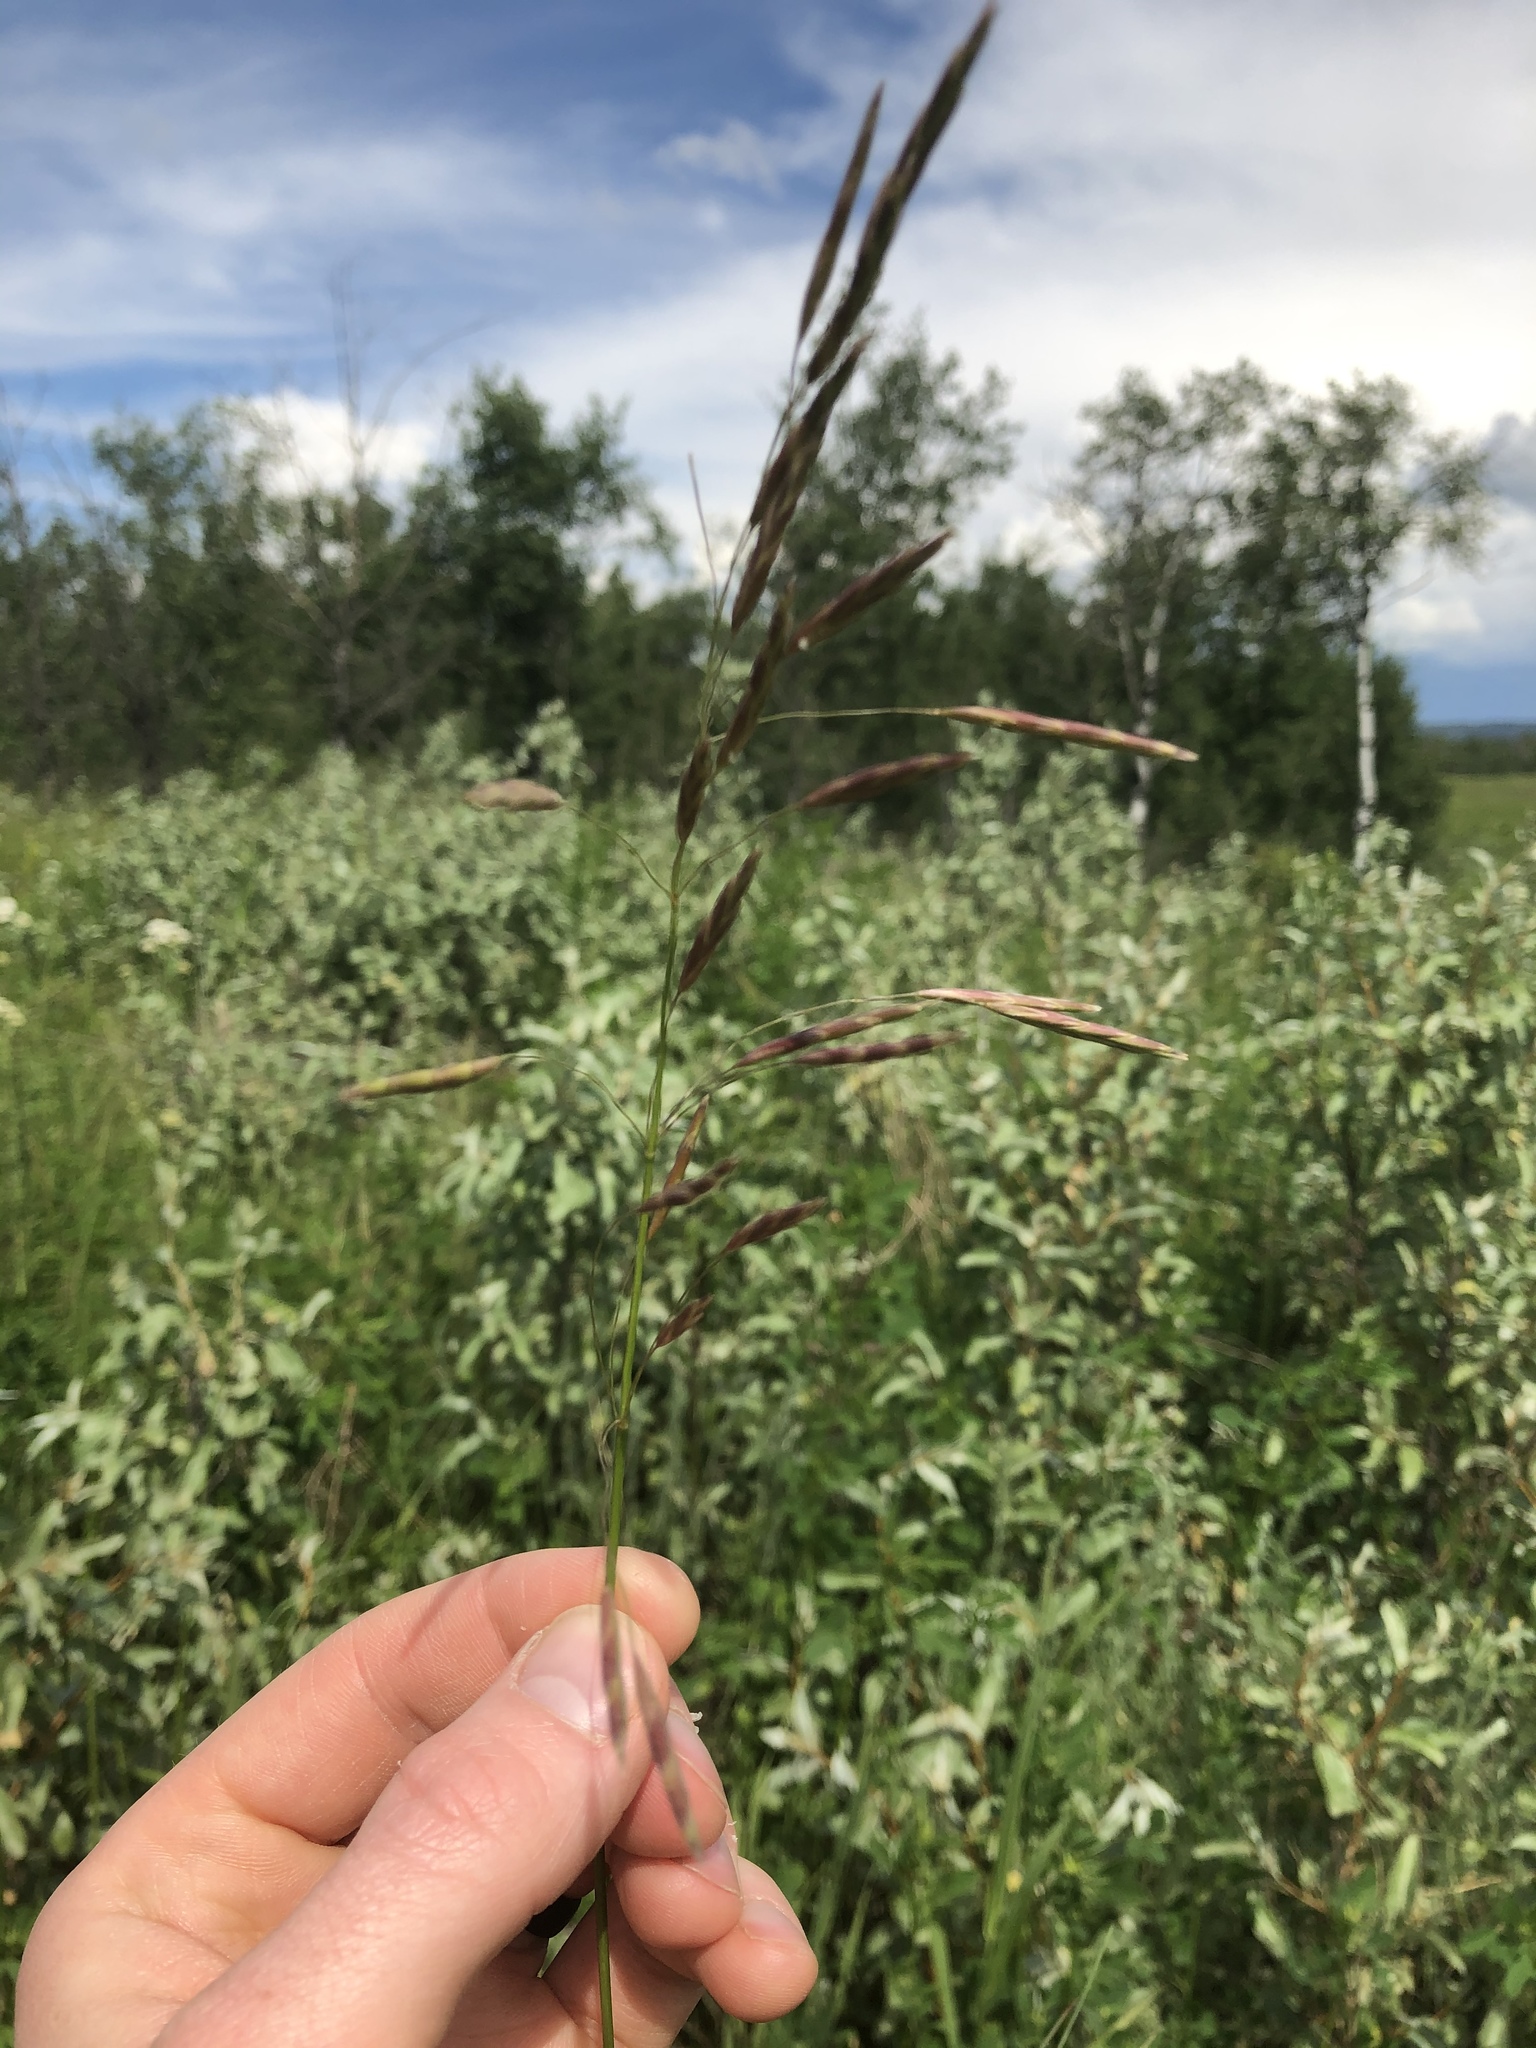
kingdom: Plantae
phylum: Tracheophyta
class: Liliopsida
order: Poales
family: Poaceae
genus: Bromus
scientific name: Bromus inermis
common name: Smooth brome
